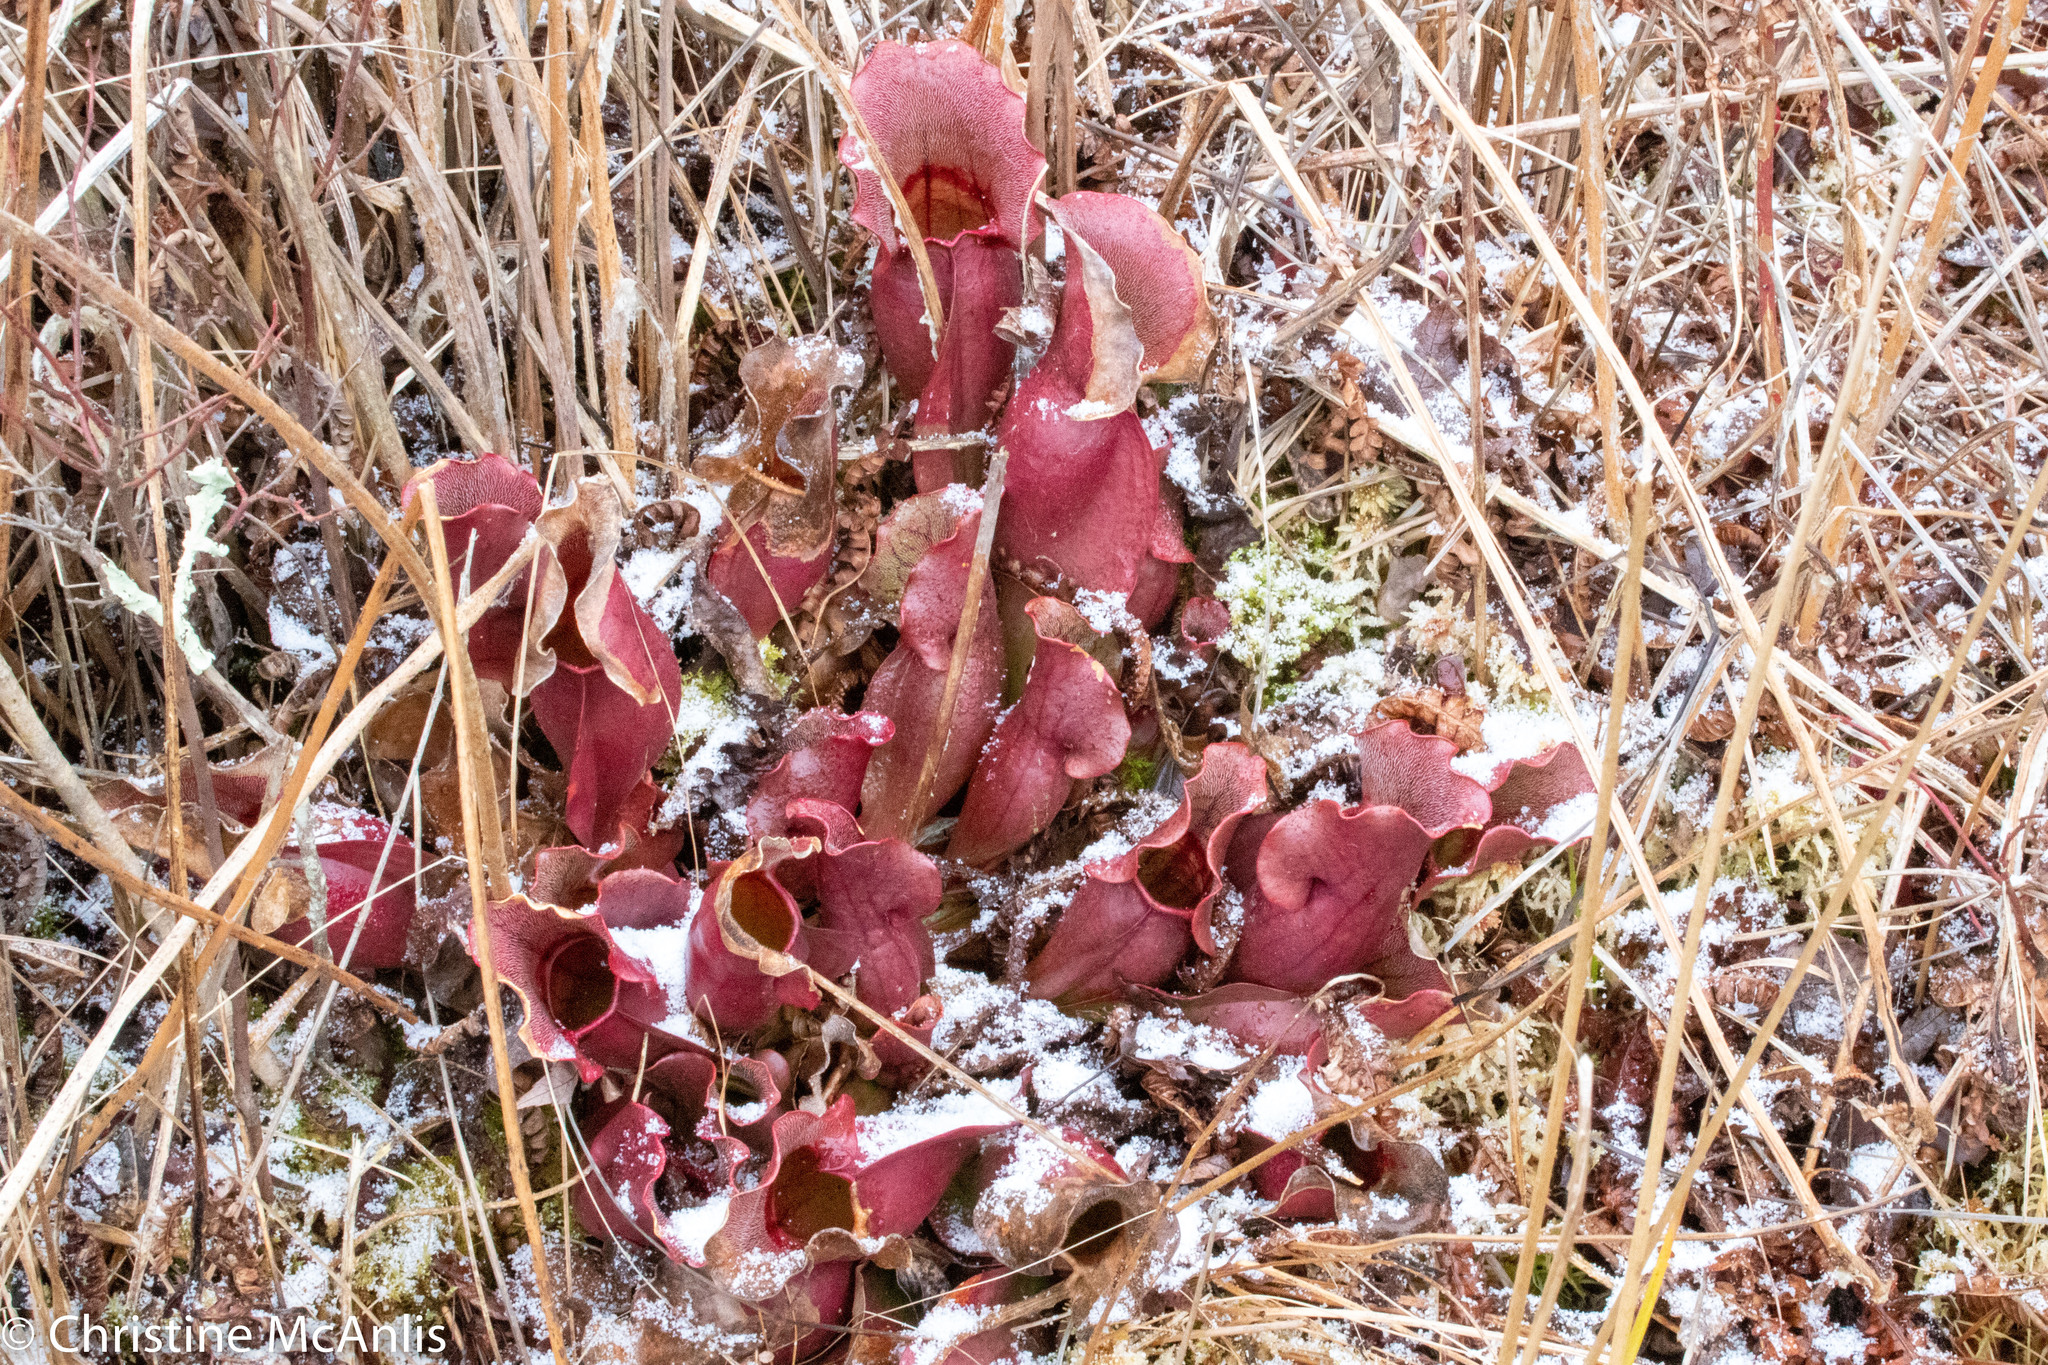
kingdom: Plantae
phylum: Tracheophyta
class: Magnoliopsida
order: Ericales
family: Sarraceniaceae
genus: Sarracenia
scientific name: Sarracenia purpurea
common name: Pitcherplant
